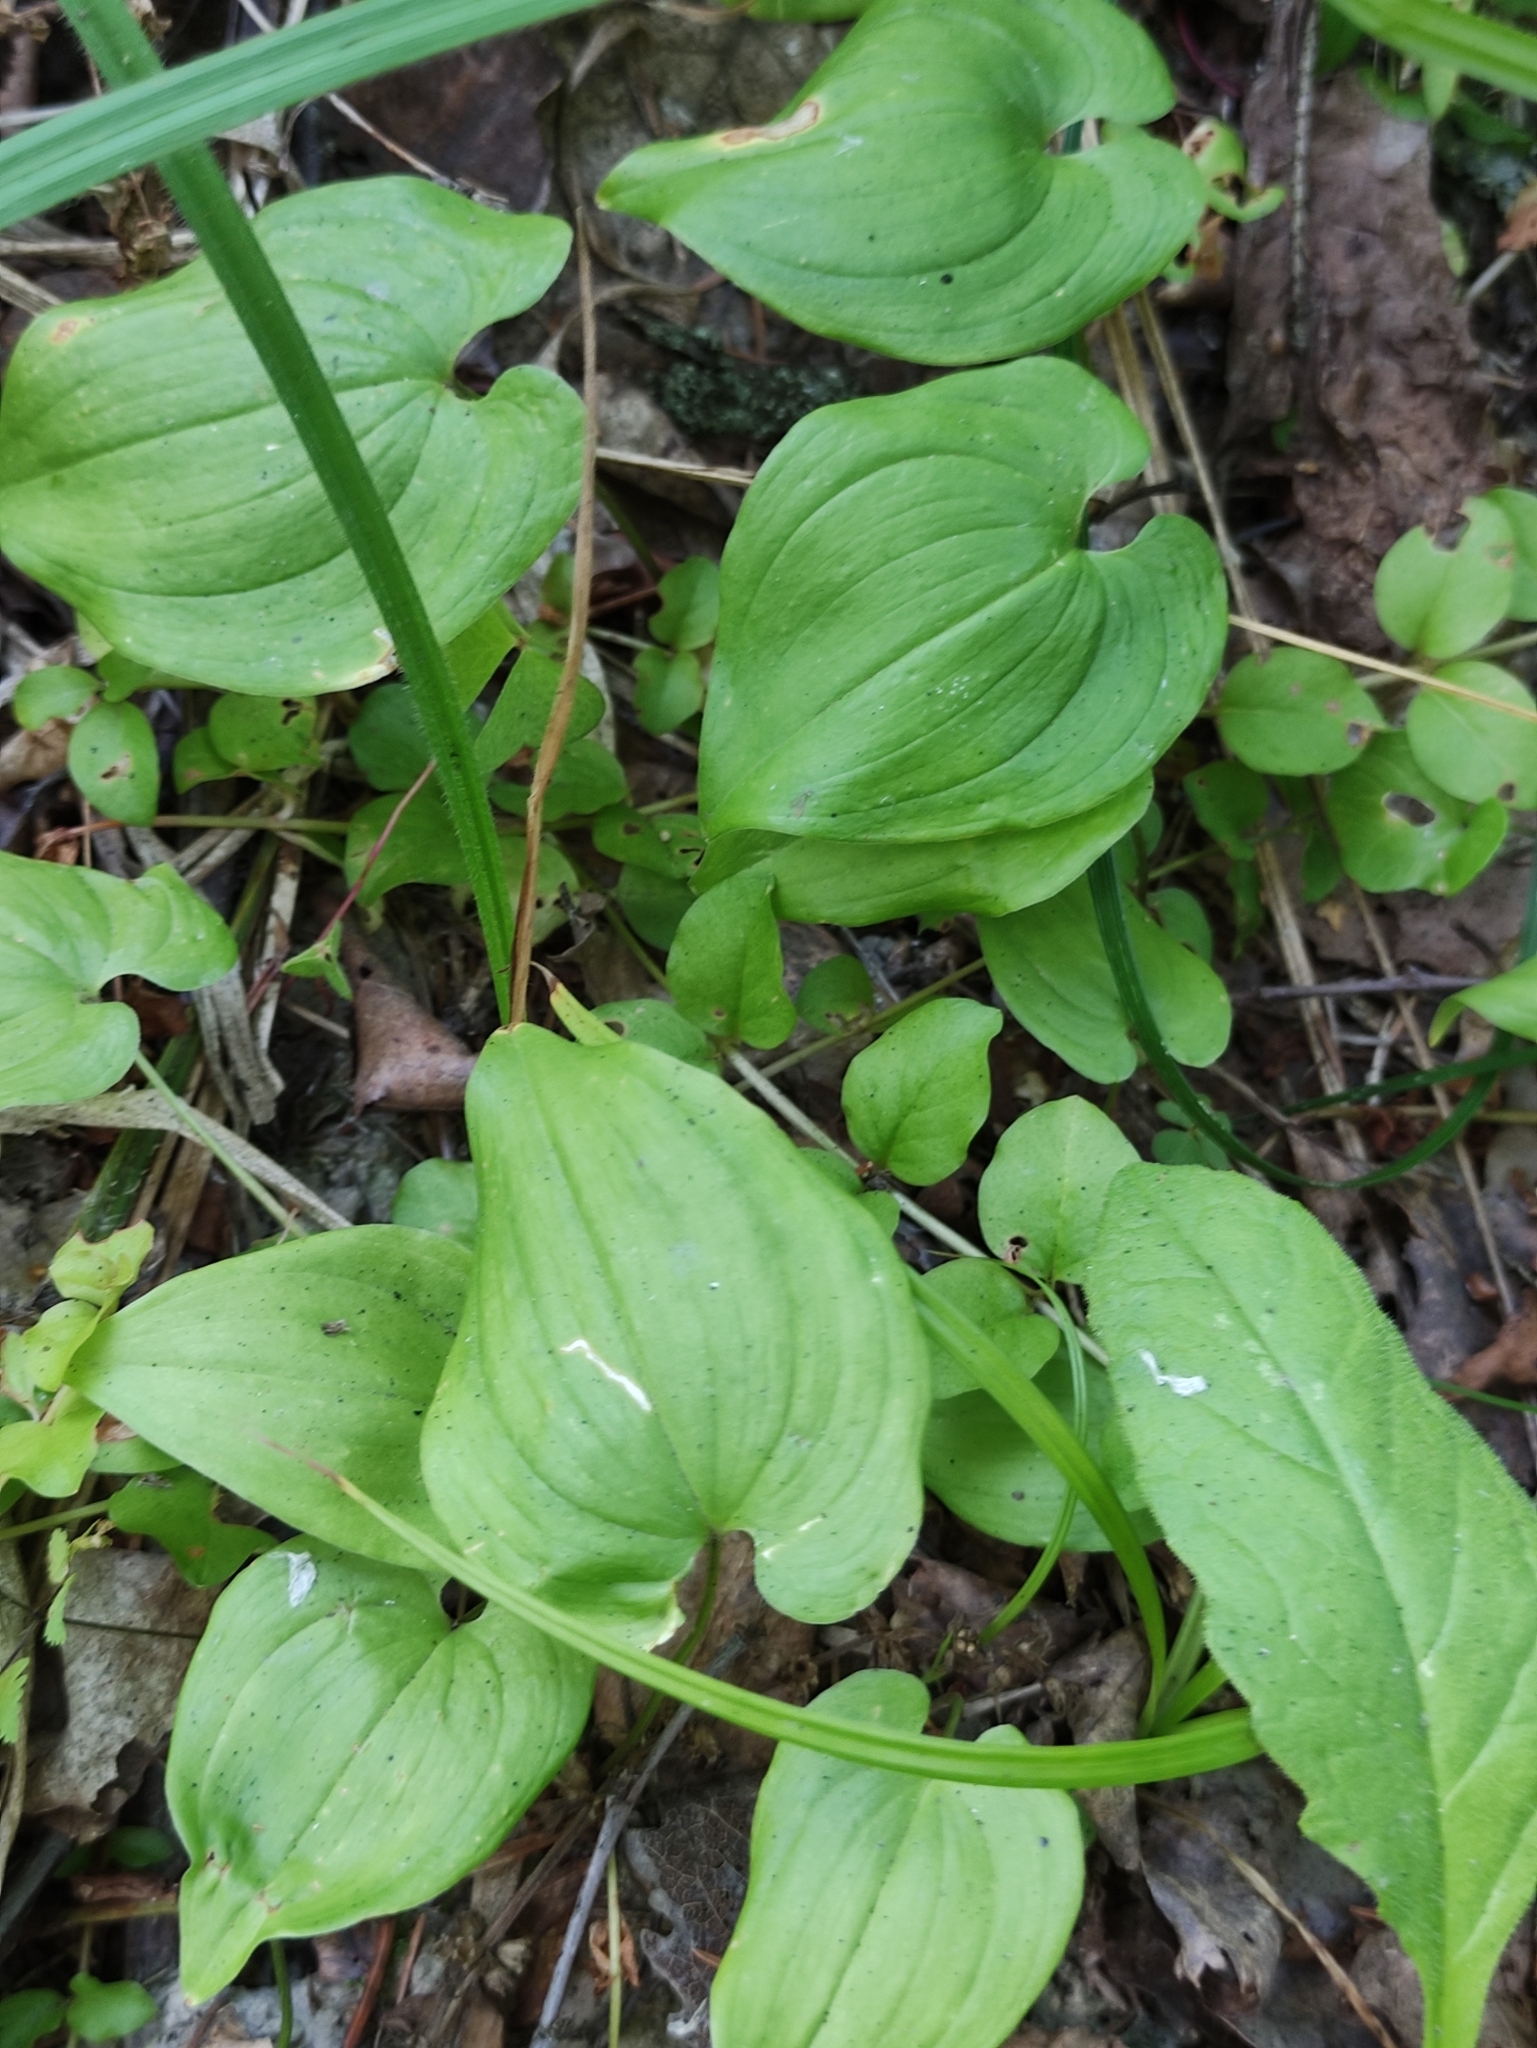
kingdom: Plantae
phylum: Tracheophyta
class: Liliopsida
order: Asparagales
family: Asparagaceae
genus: Maianthemum
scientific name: Maianthemum bifolium
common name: May lily
